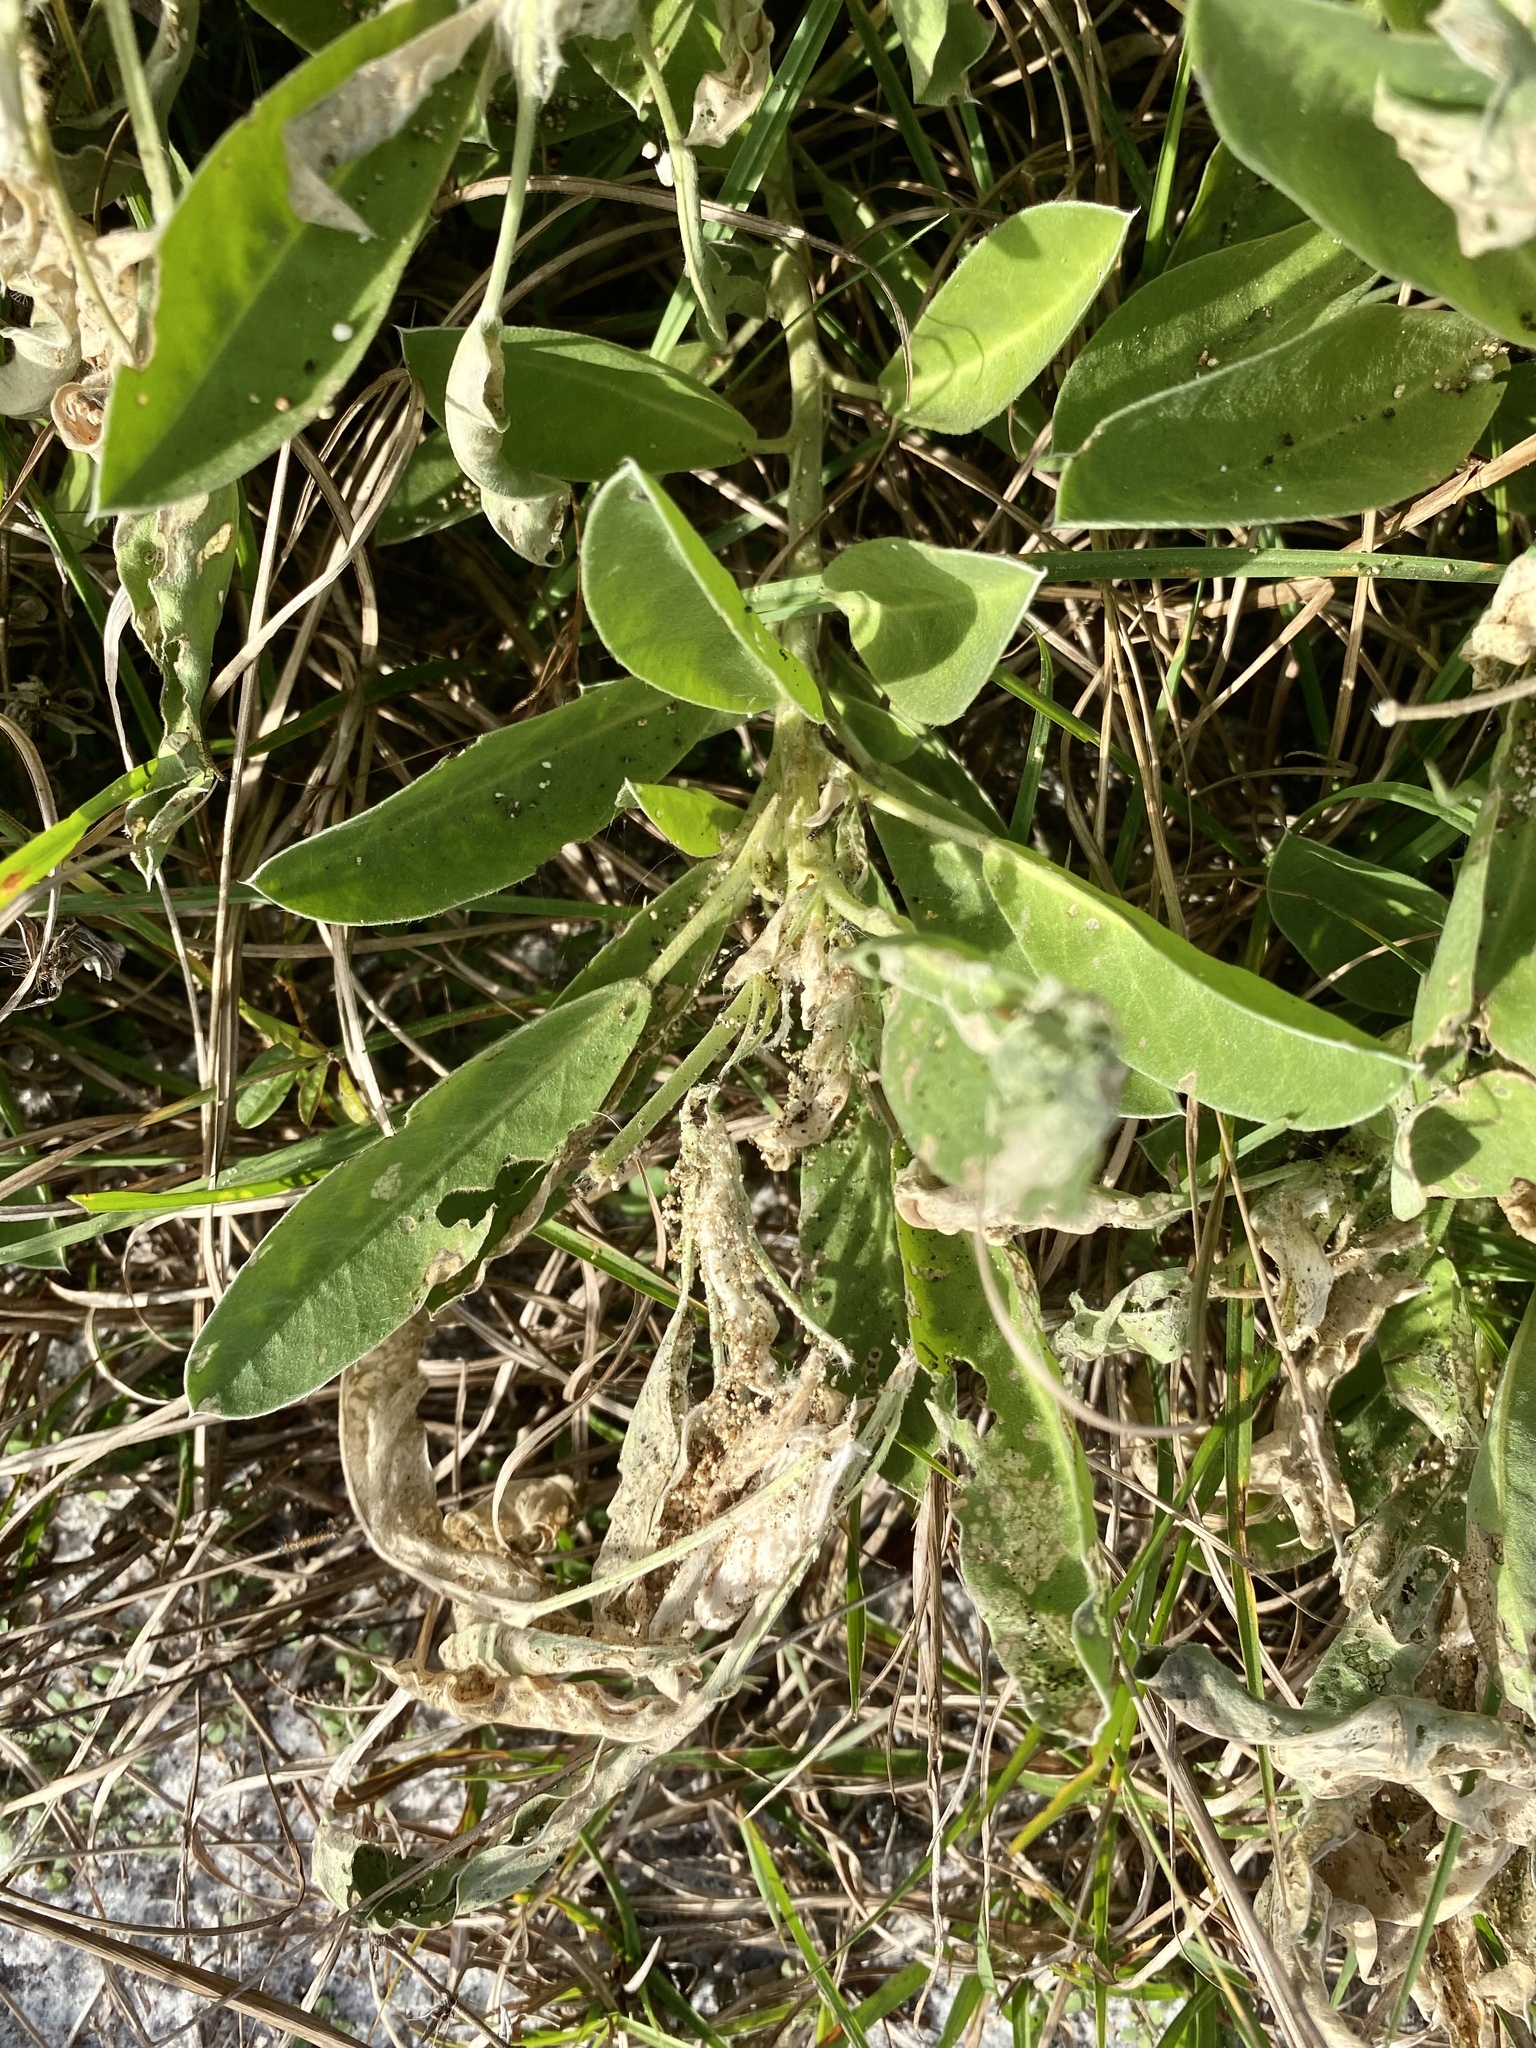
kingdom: Plantae
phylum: Tracheophyta
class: Magnoliopsida
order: Fabales
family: Fabaceae
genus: Lupinus
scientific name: Lupinus
